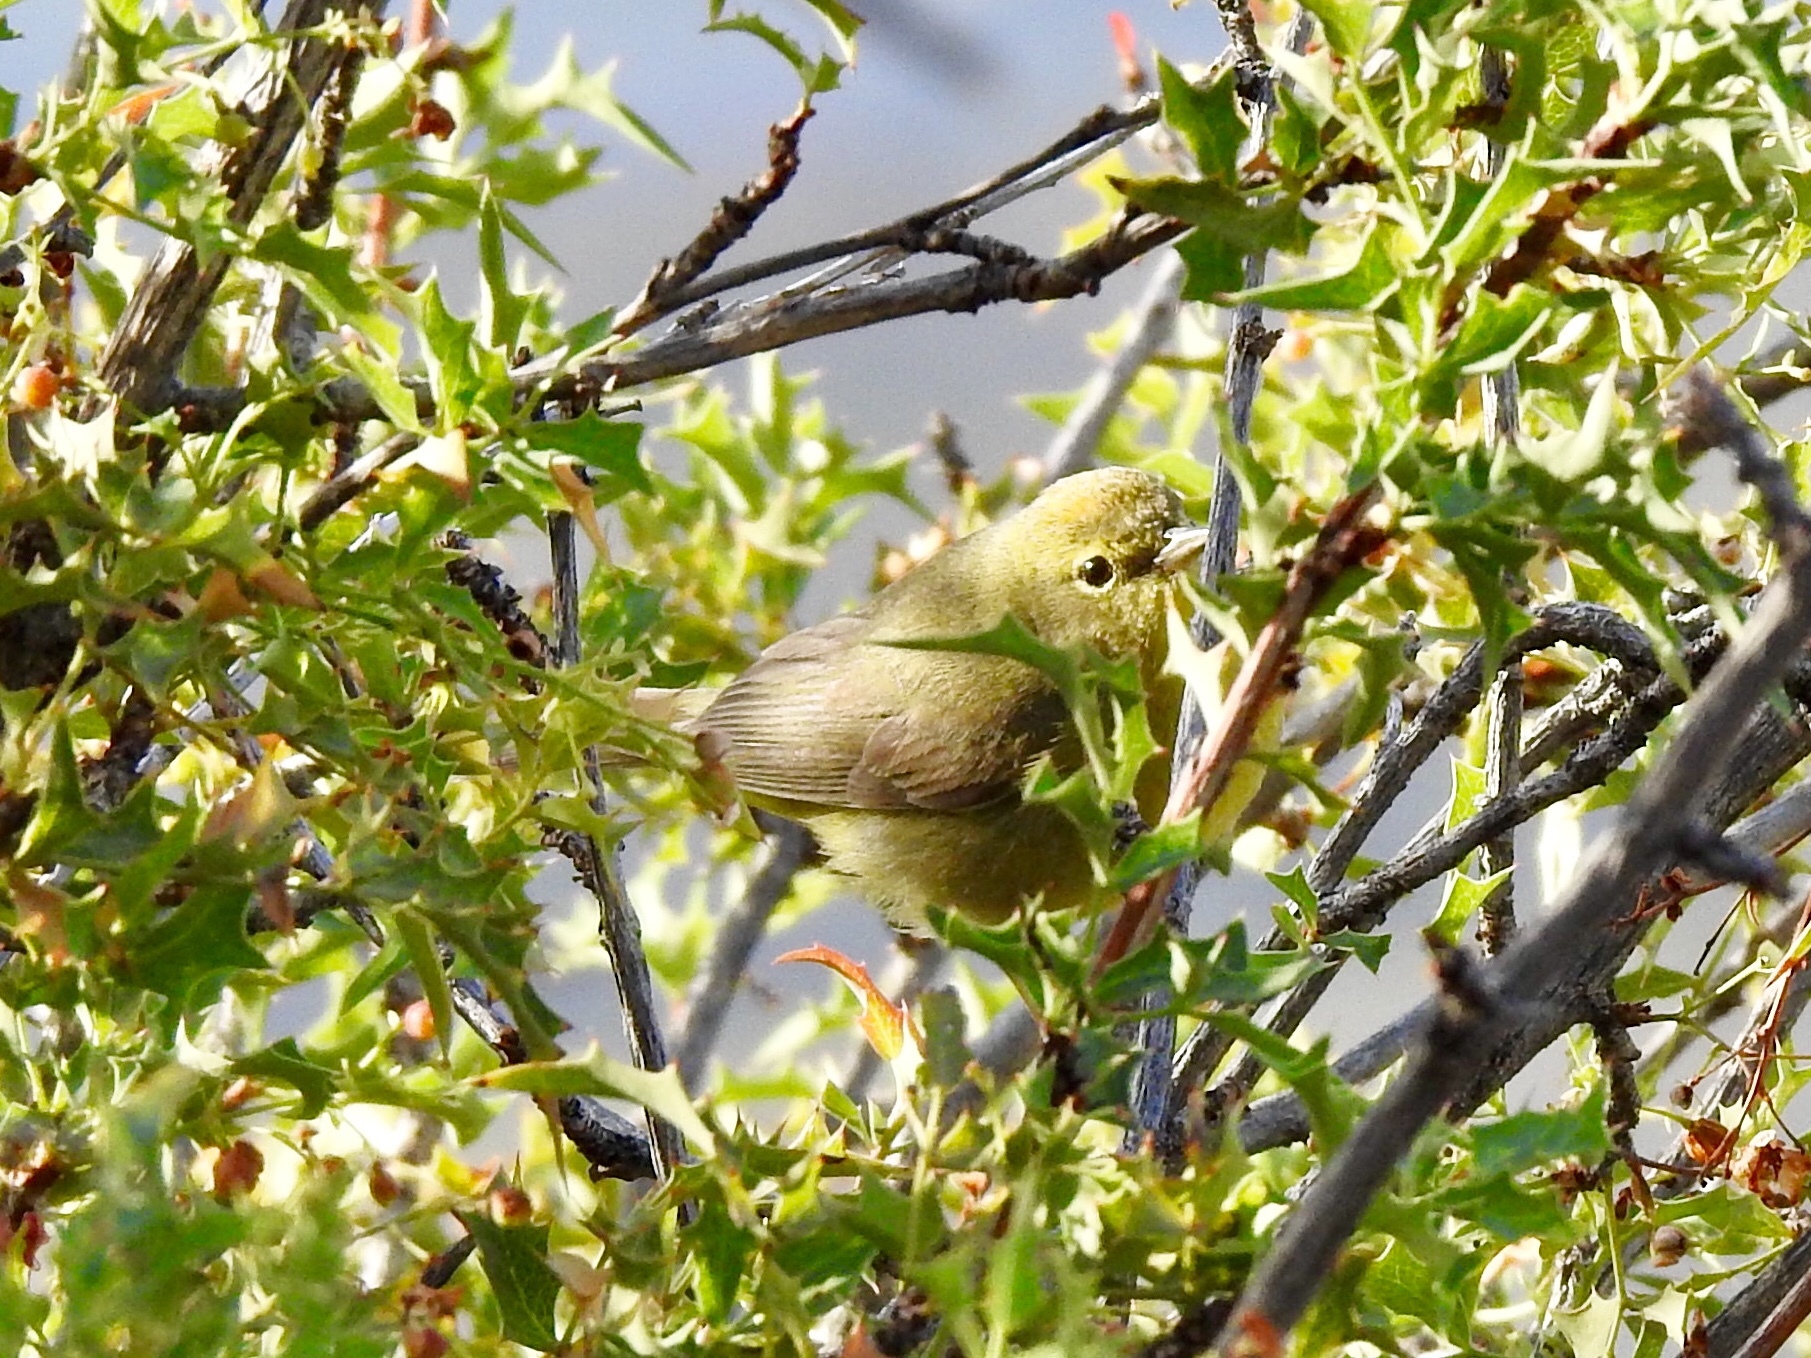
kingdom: Animalia
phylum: Chordata
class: Aves
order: Passeriformes
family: Parulidae
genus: Leiothlypis
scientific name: Leiothlypis celata
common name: Orange-crowned warbler
